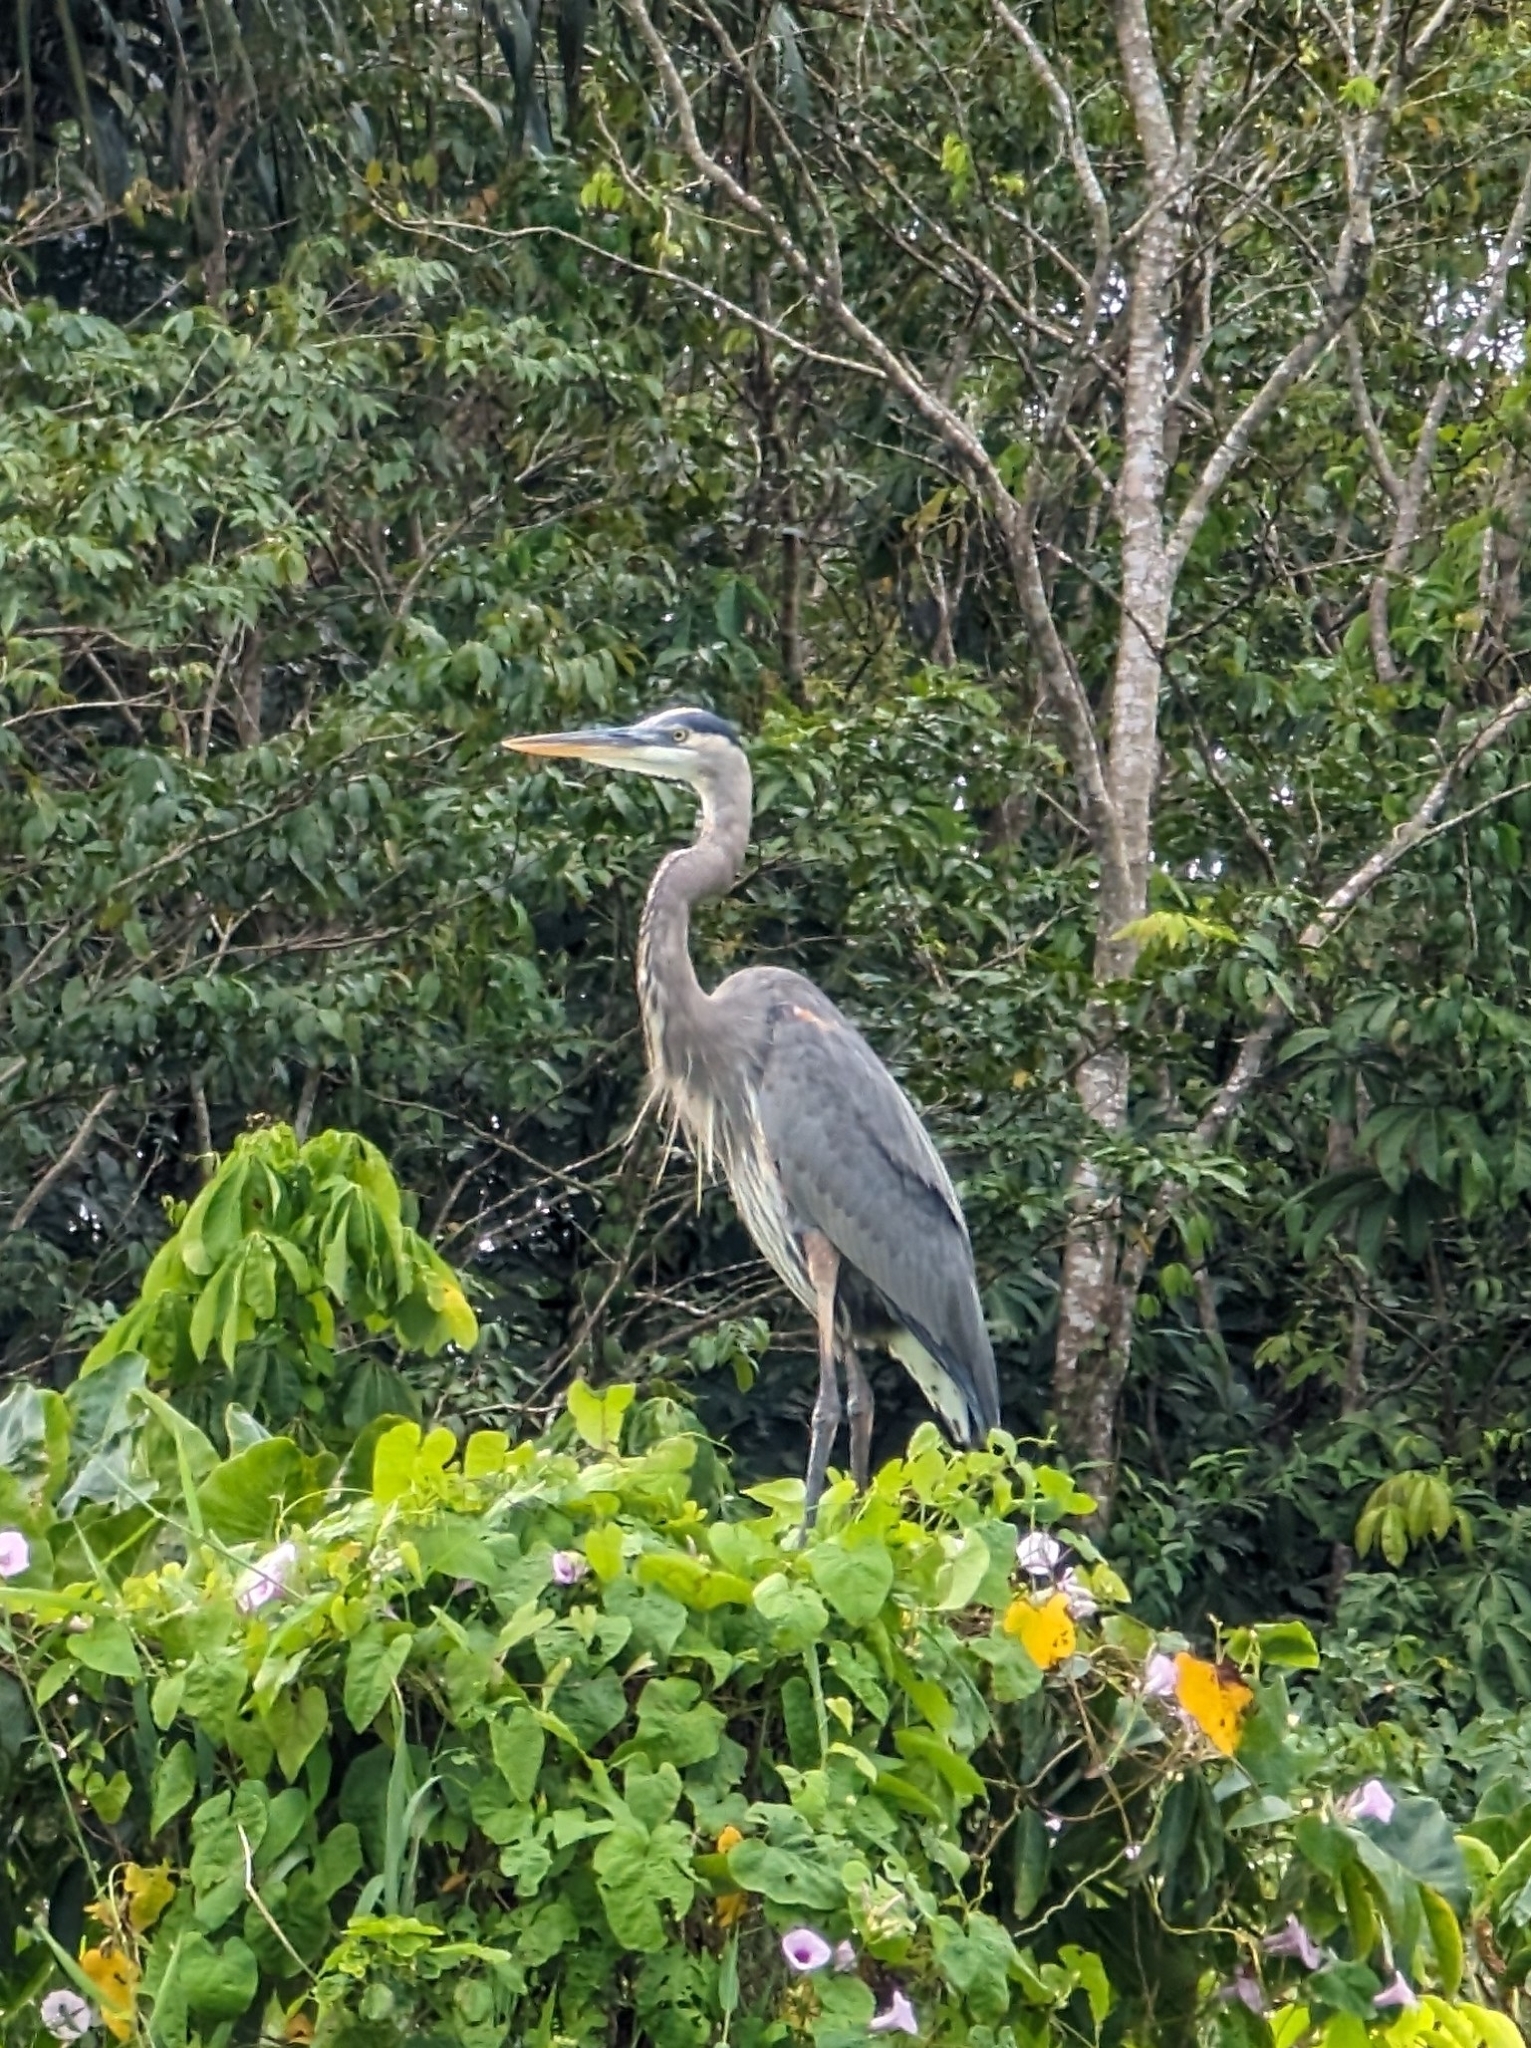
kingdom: Animalia
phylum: Chordata
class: Aves
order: Pelecaniformes
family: Ardeidae
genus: Ardea
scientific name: Ardea herodias
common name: Great blue heron
